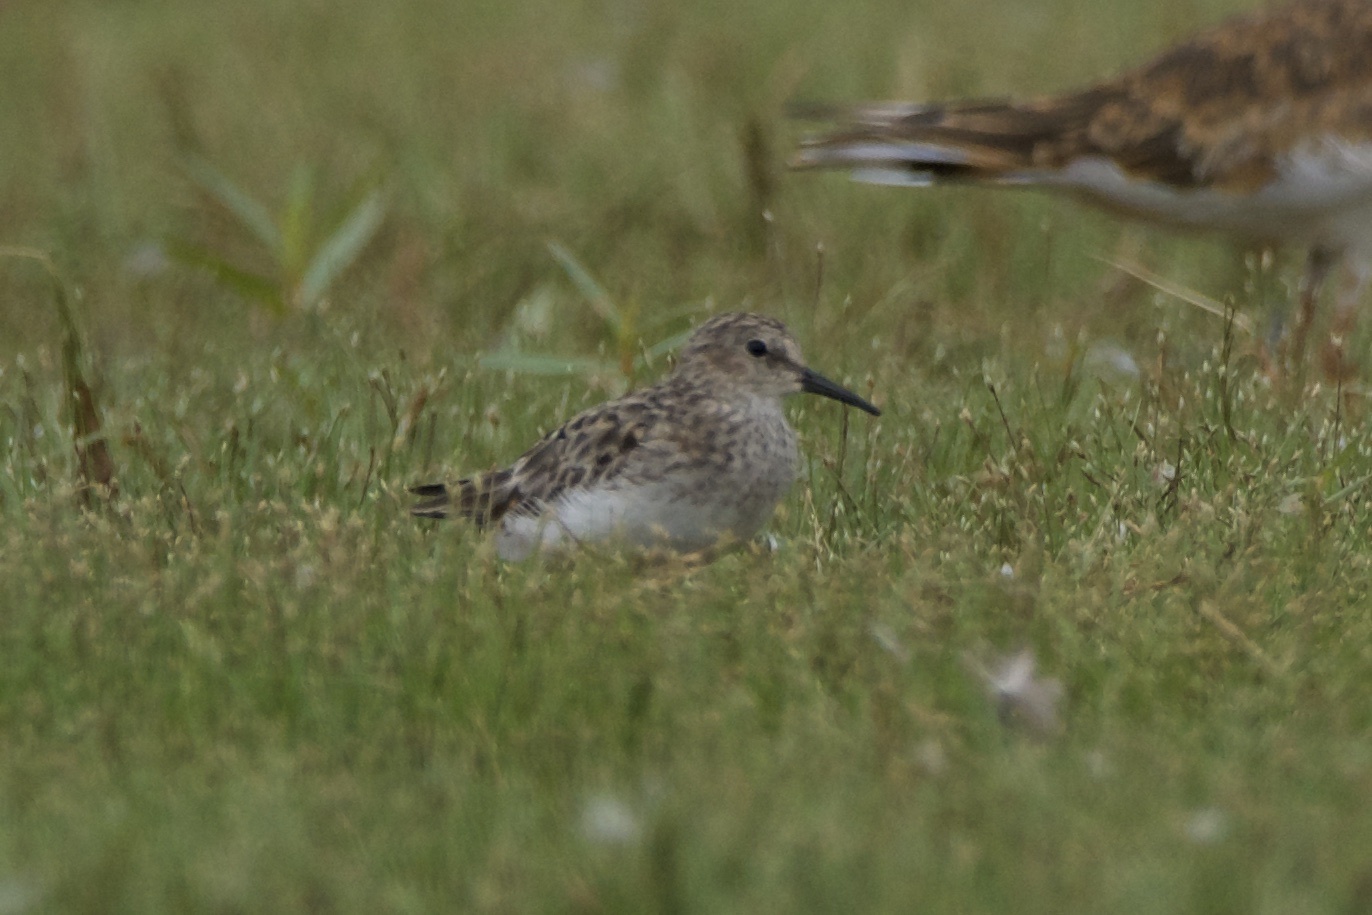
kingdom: Animalia
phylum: Chordata
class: Aves
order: Charadriiformes
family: Scolopacidae
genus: Calidris
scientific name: Calidris minutilla
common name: Least sandpiper
